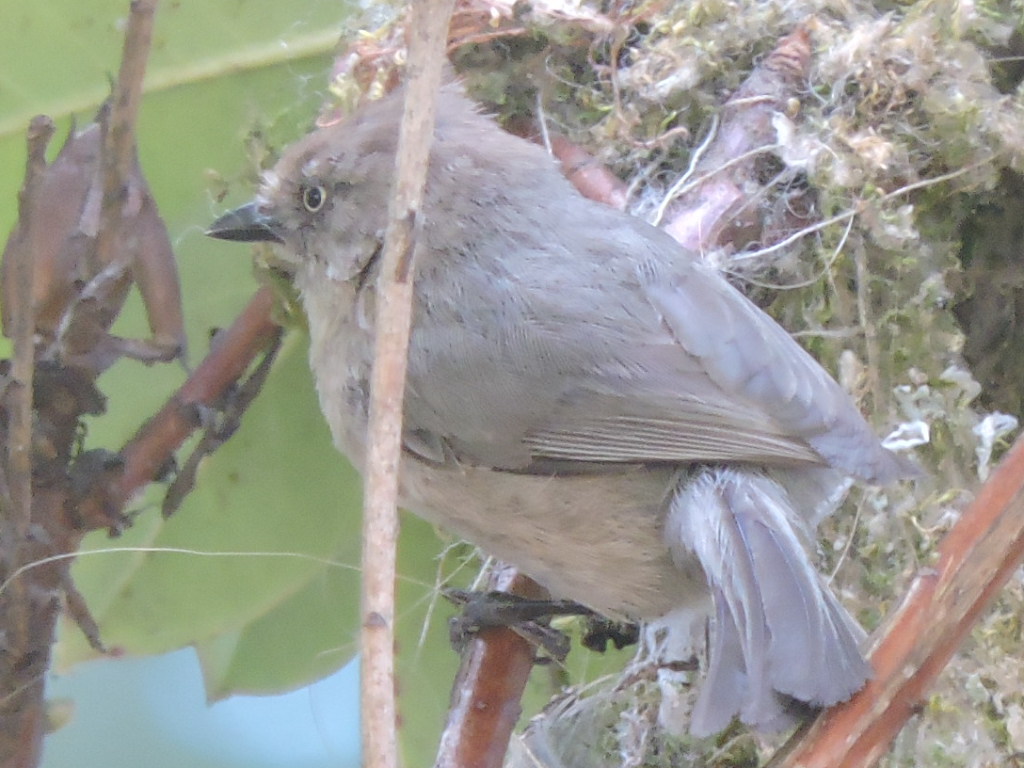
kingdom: Animalia
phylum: Chordata
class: Aves
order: Passeriformes
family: Aegithalidae
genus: Psaltriparus
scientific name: Psaltriparus minimus
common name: American bushtit
